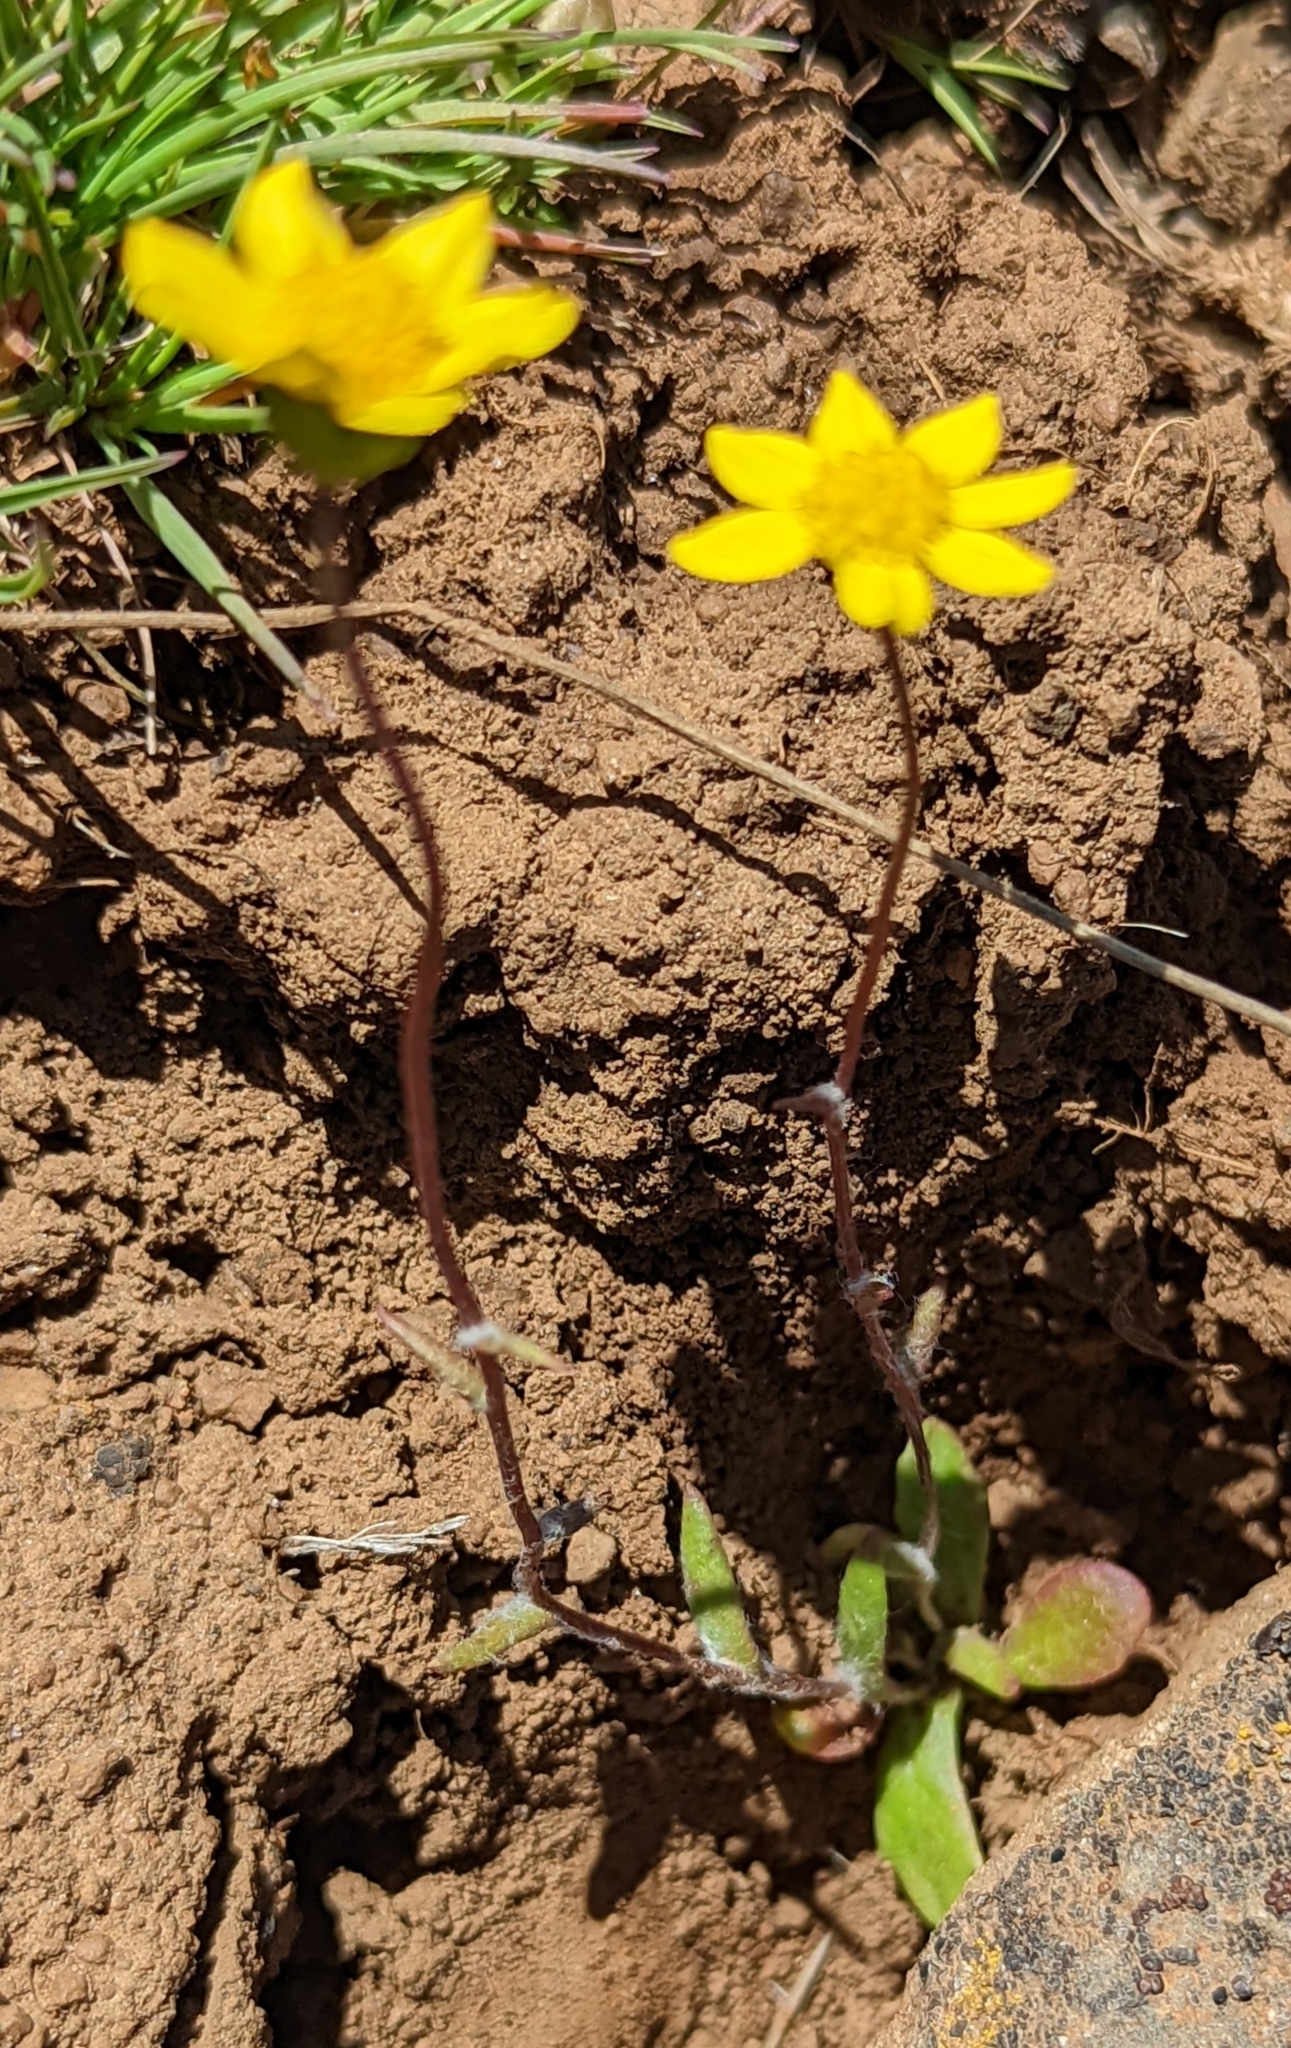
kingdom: Plantae
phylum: Tracheophyta
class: Magnoliopsida
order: Asterales
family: Asteraceae
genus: Crocidium
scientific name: Crocidium multicaule
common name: Common spring gold
